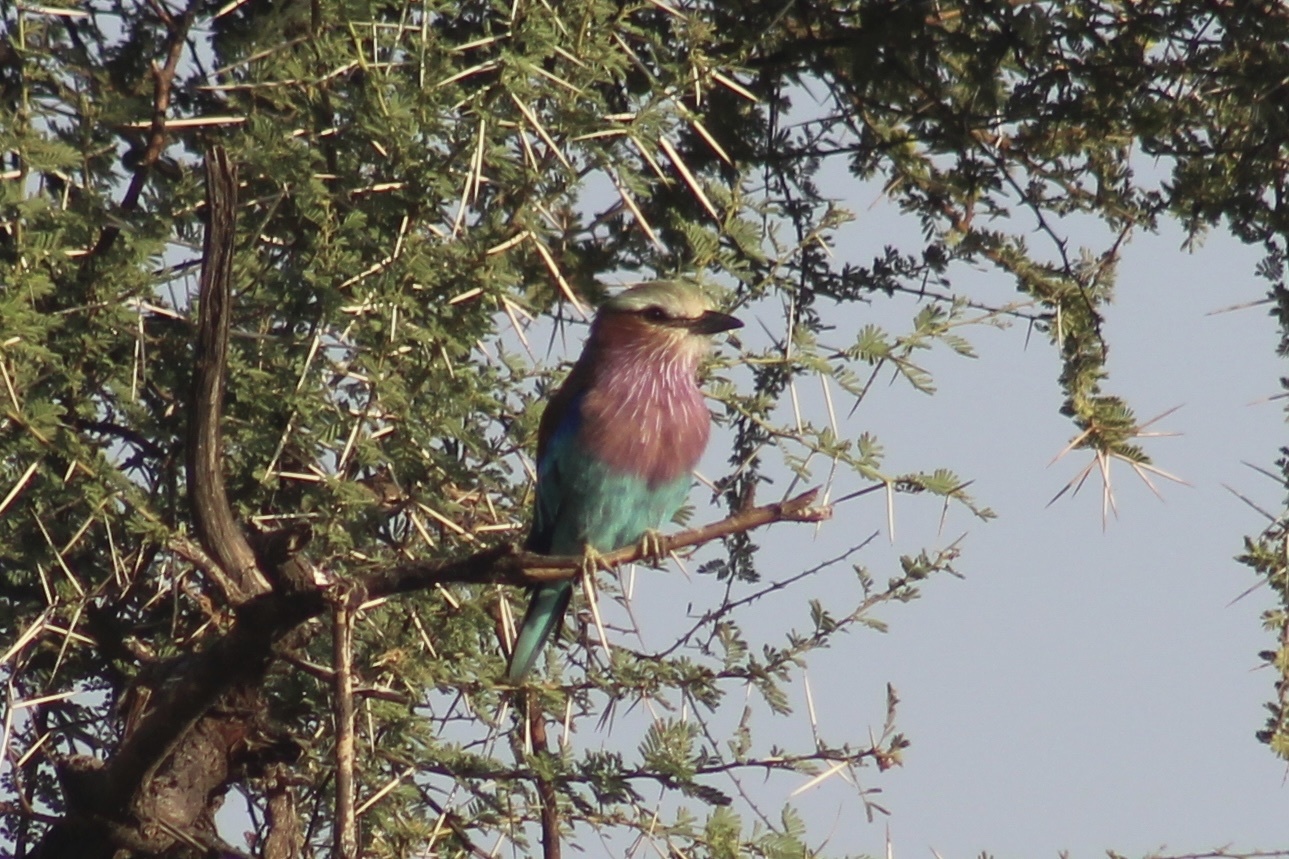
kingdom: Animalia
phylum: Chordata
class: Aves
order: Coraciiformes
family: Coraciidae
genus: Coracias
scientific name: Coracias caudatus
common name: Lilac-breasted roller
